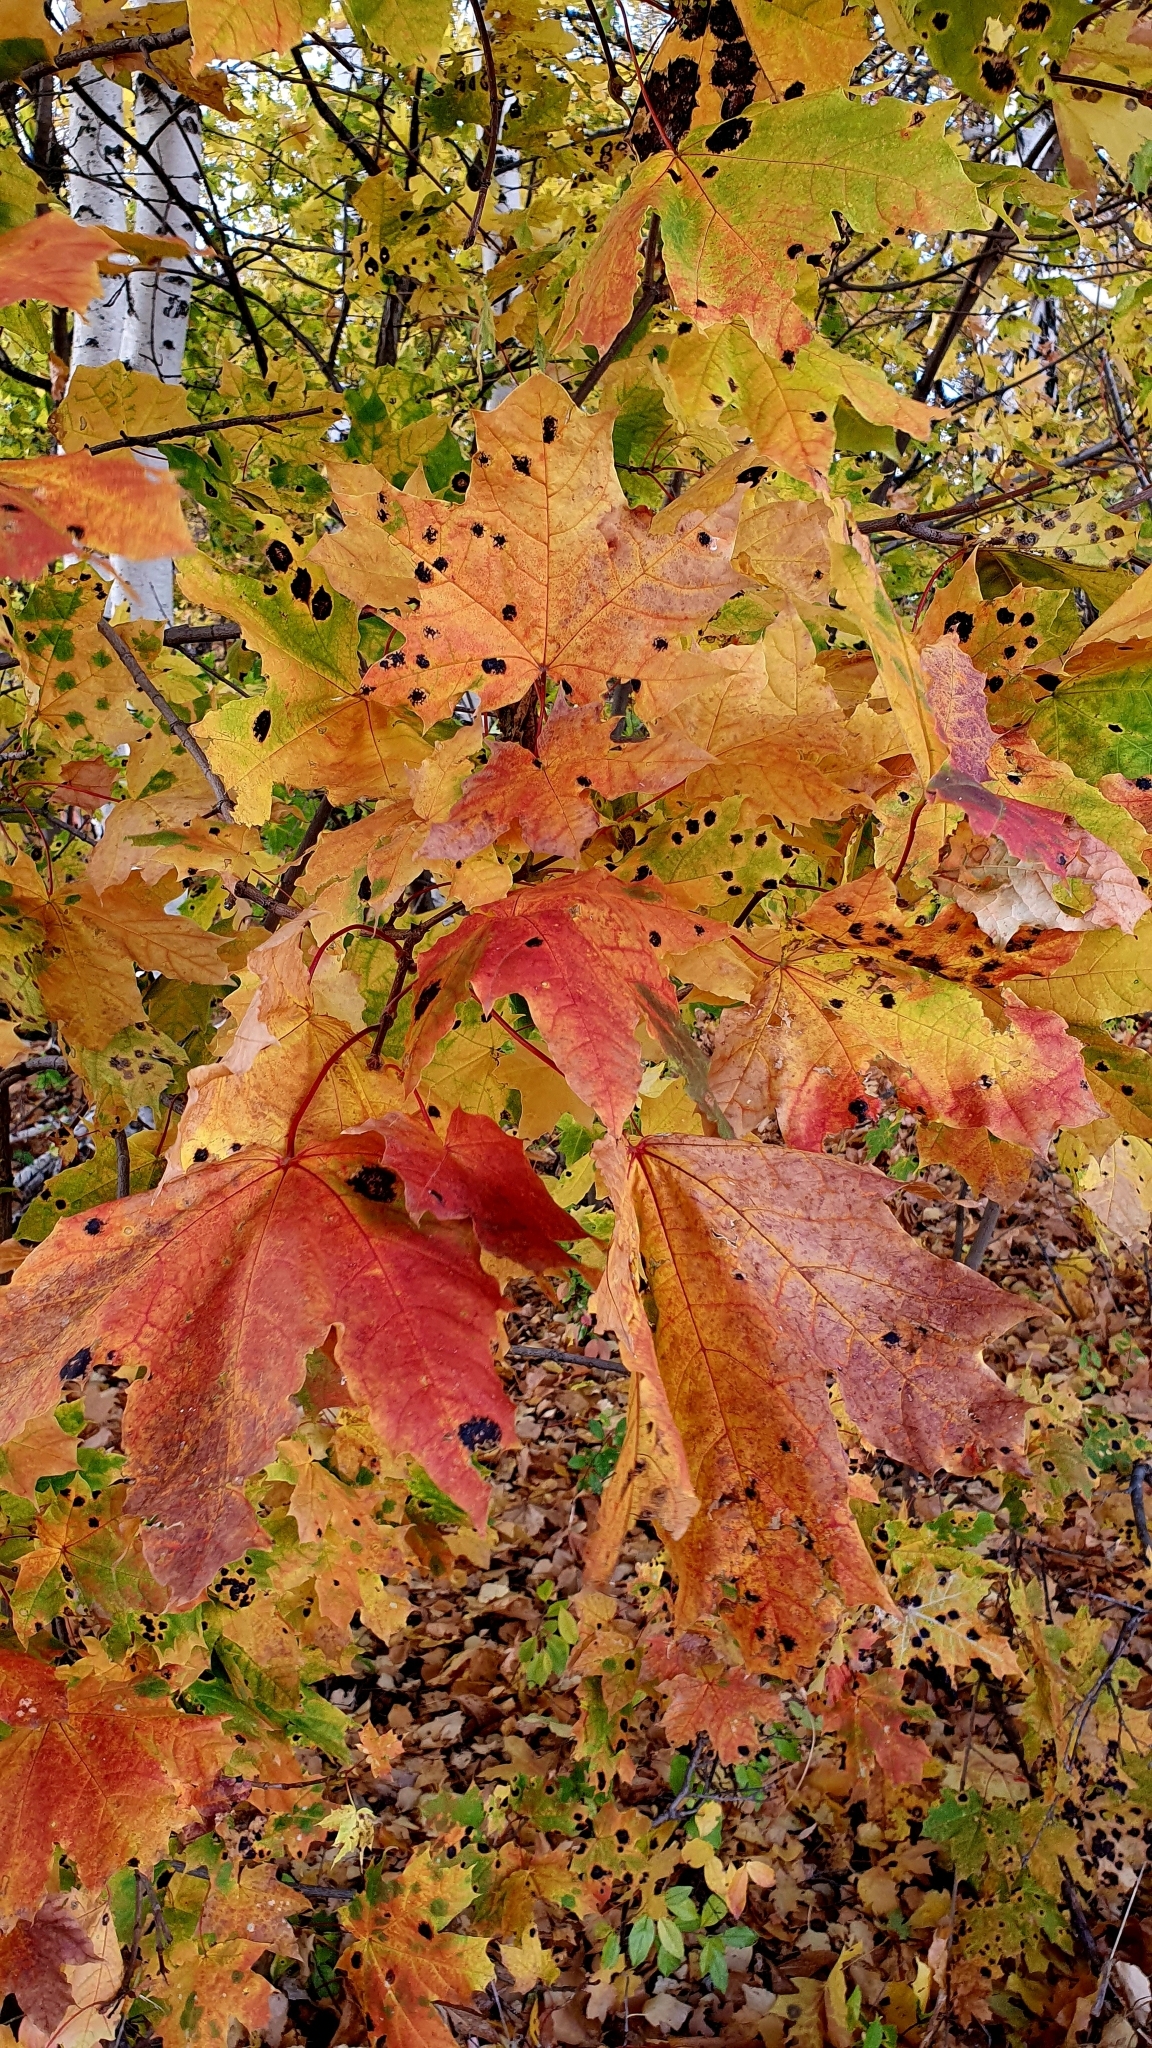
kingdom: Plantae
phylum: Tracheophyta
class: Magnoliopsida
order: Sapindales
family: Sapindaceae
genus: Acer
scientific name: Acer platanoides
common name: Norway maple
